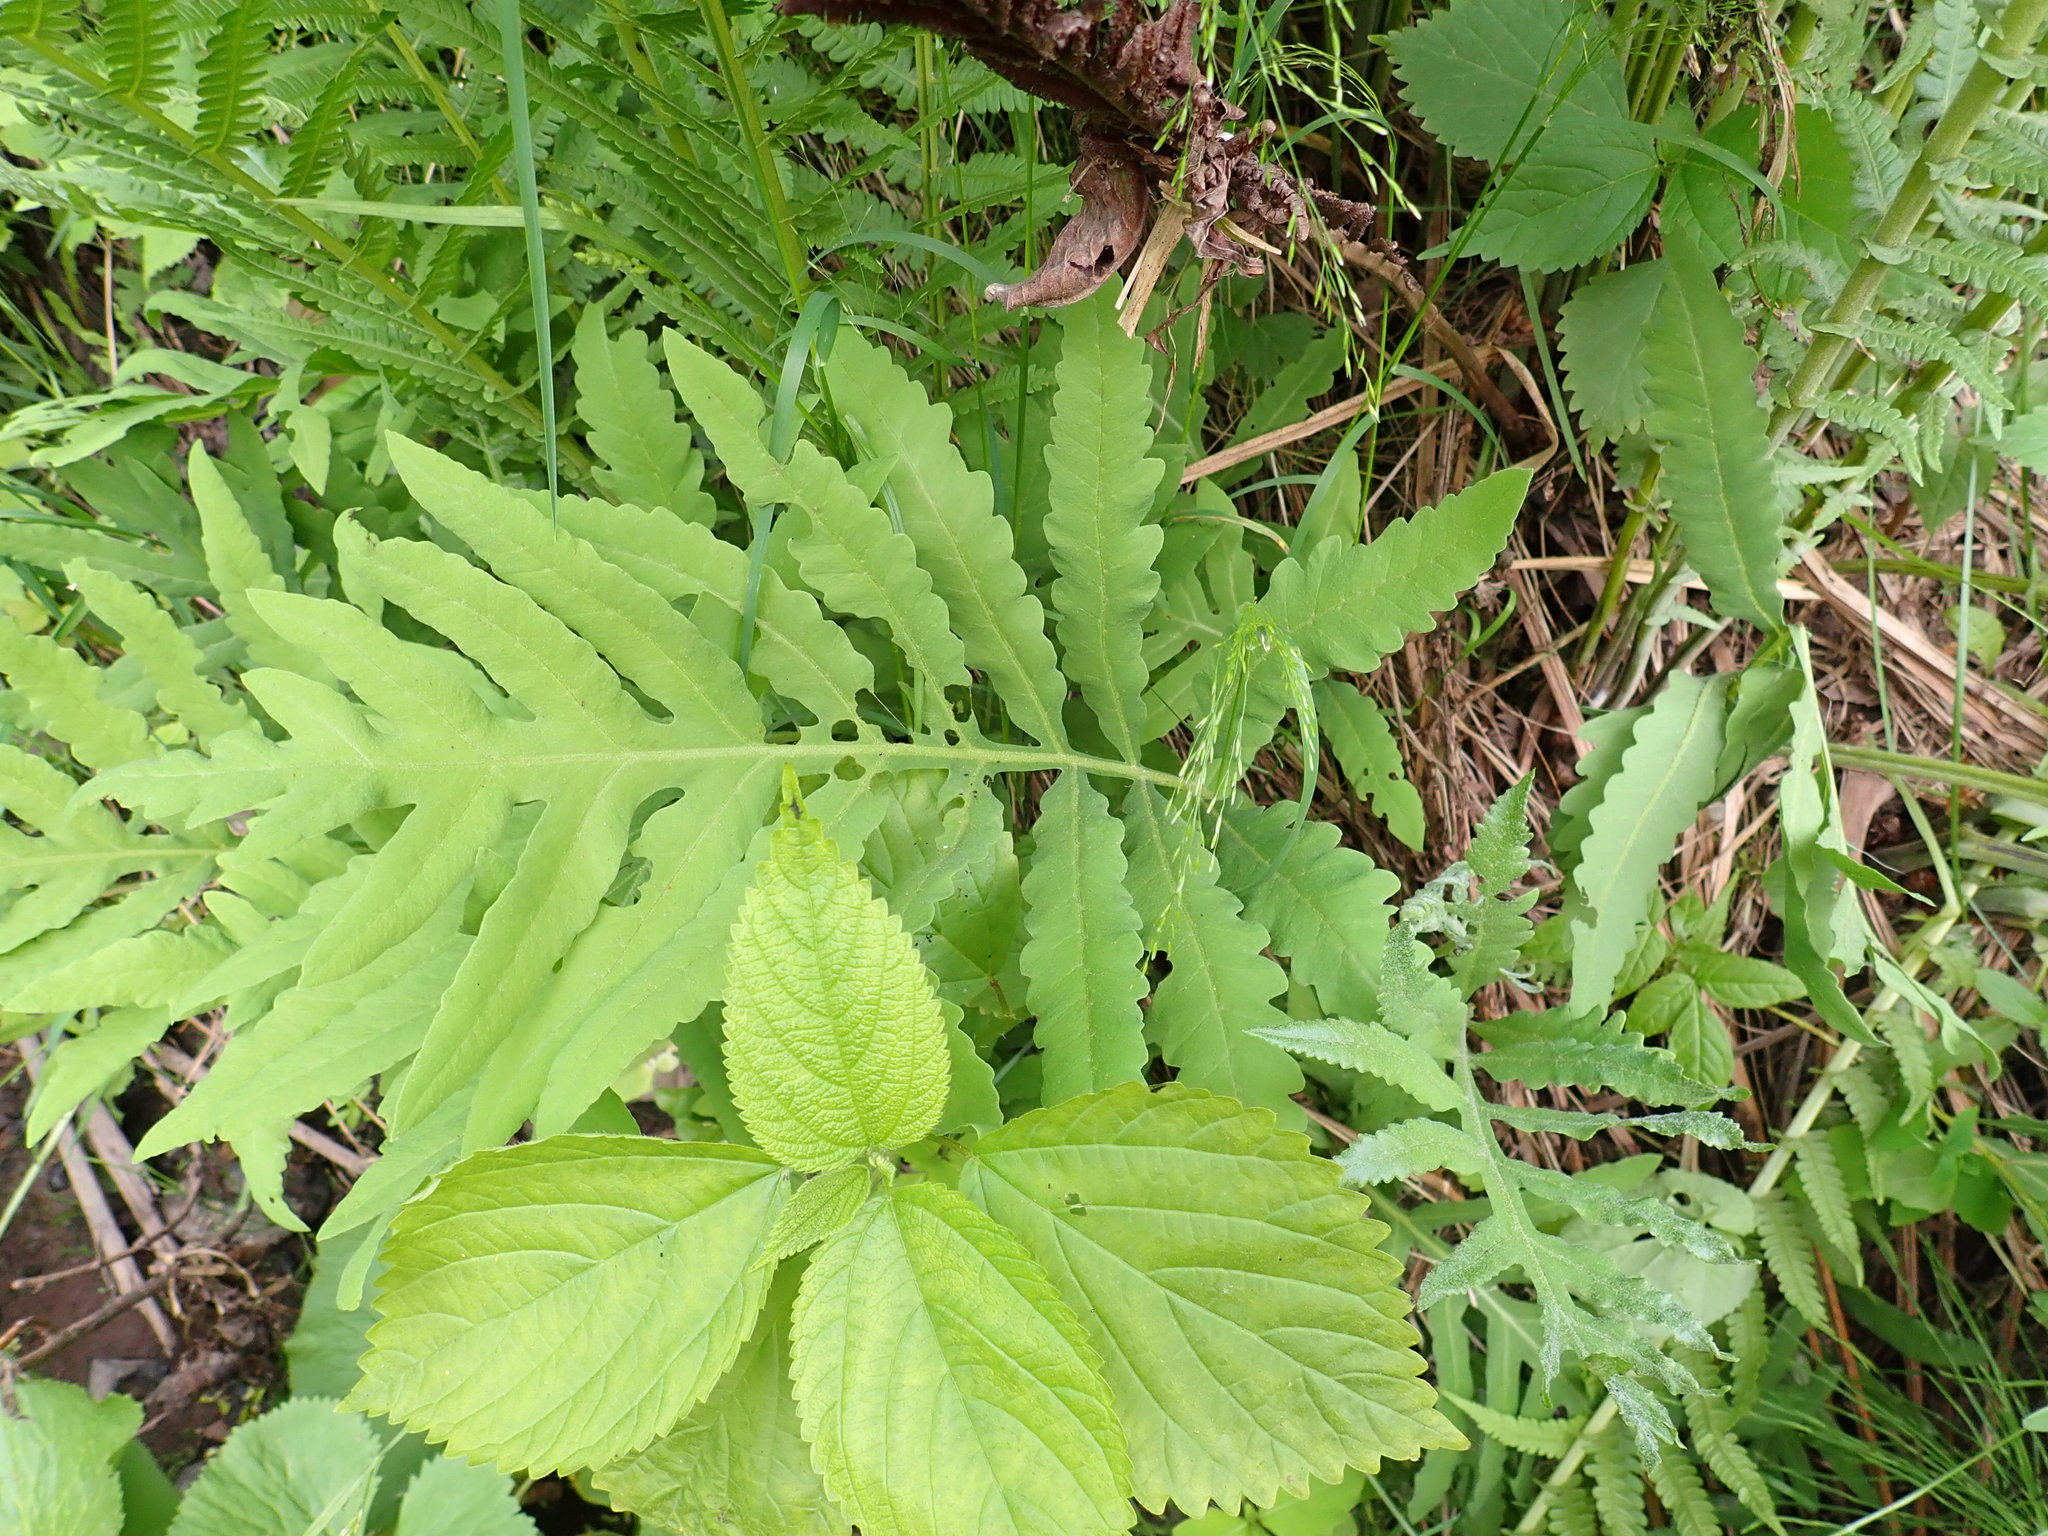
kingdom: Plantae
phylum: Tracheophyta
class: Polypodiopsida
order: Polypodiales
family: Onocleaceae
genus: Onoclea
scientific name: Onoclea sensibilis
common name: Sensitive fern
